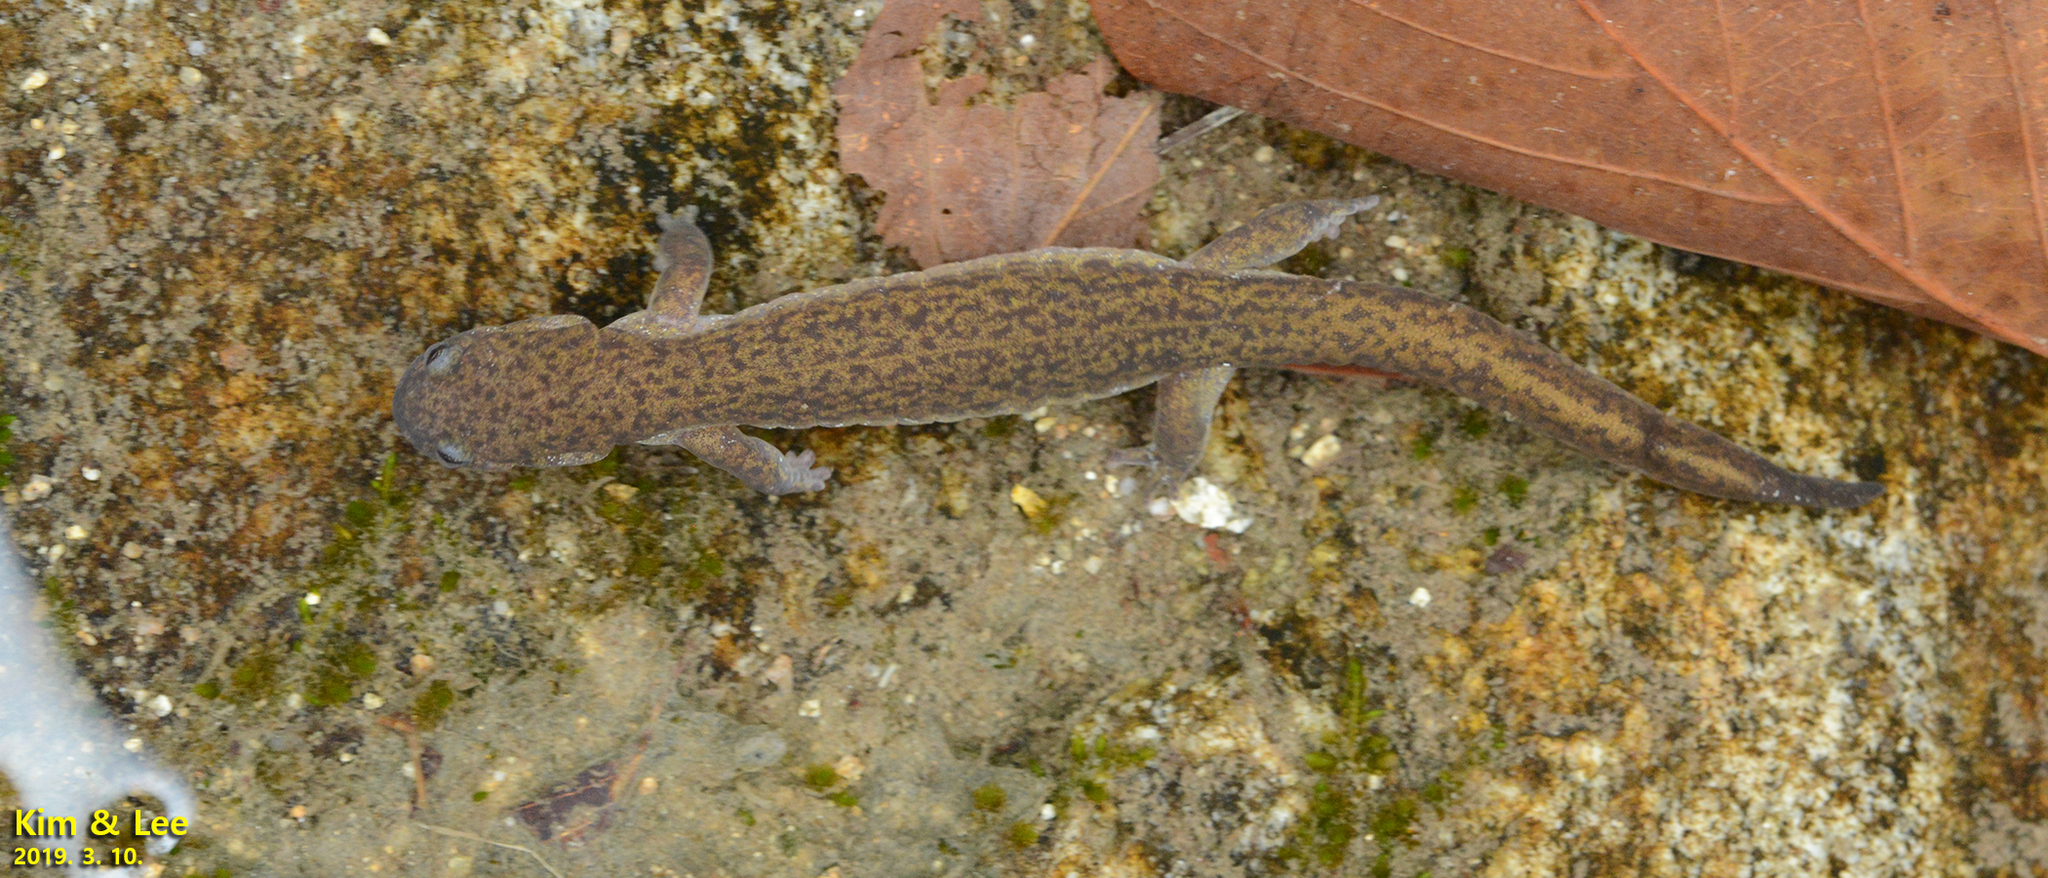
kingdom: Animalia
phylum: Chordata
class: Amphibia
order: Caudata
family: Hynobiidae
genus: Hynobius
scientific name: Hynobius unisacculus
